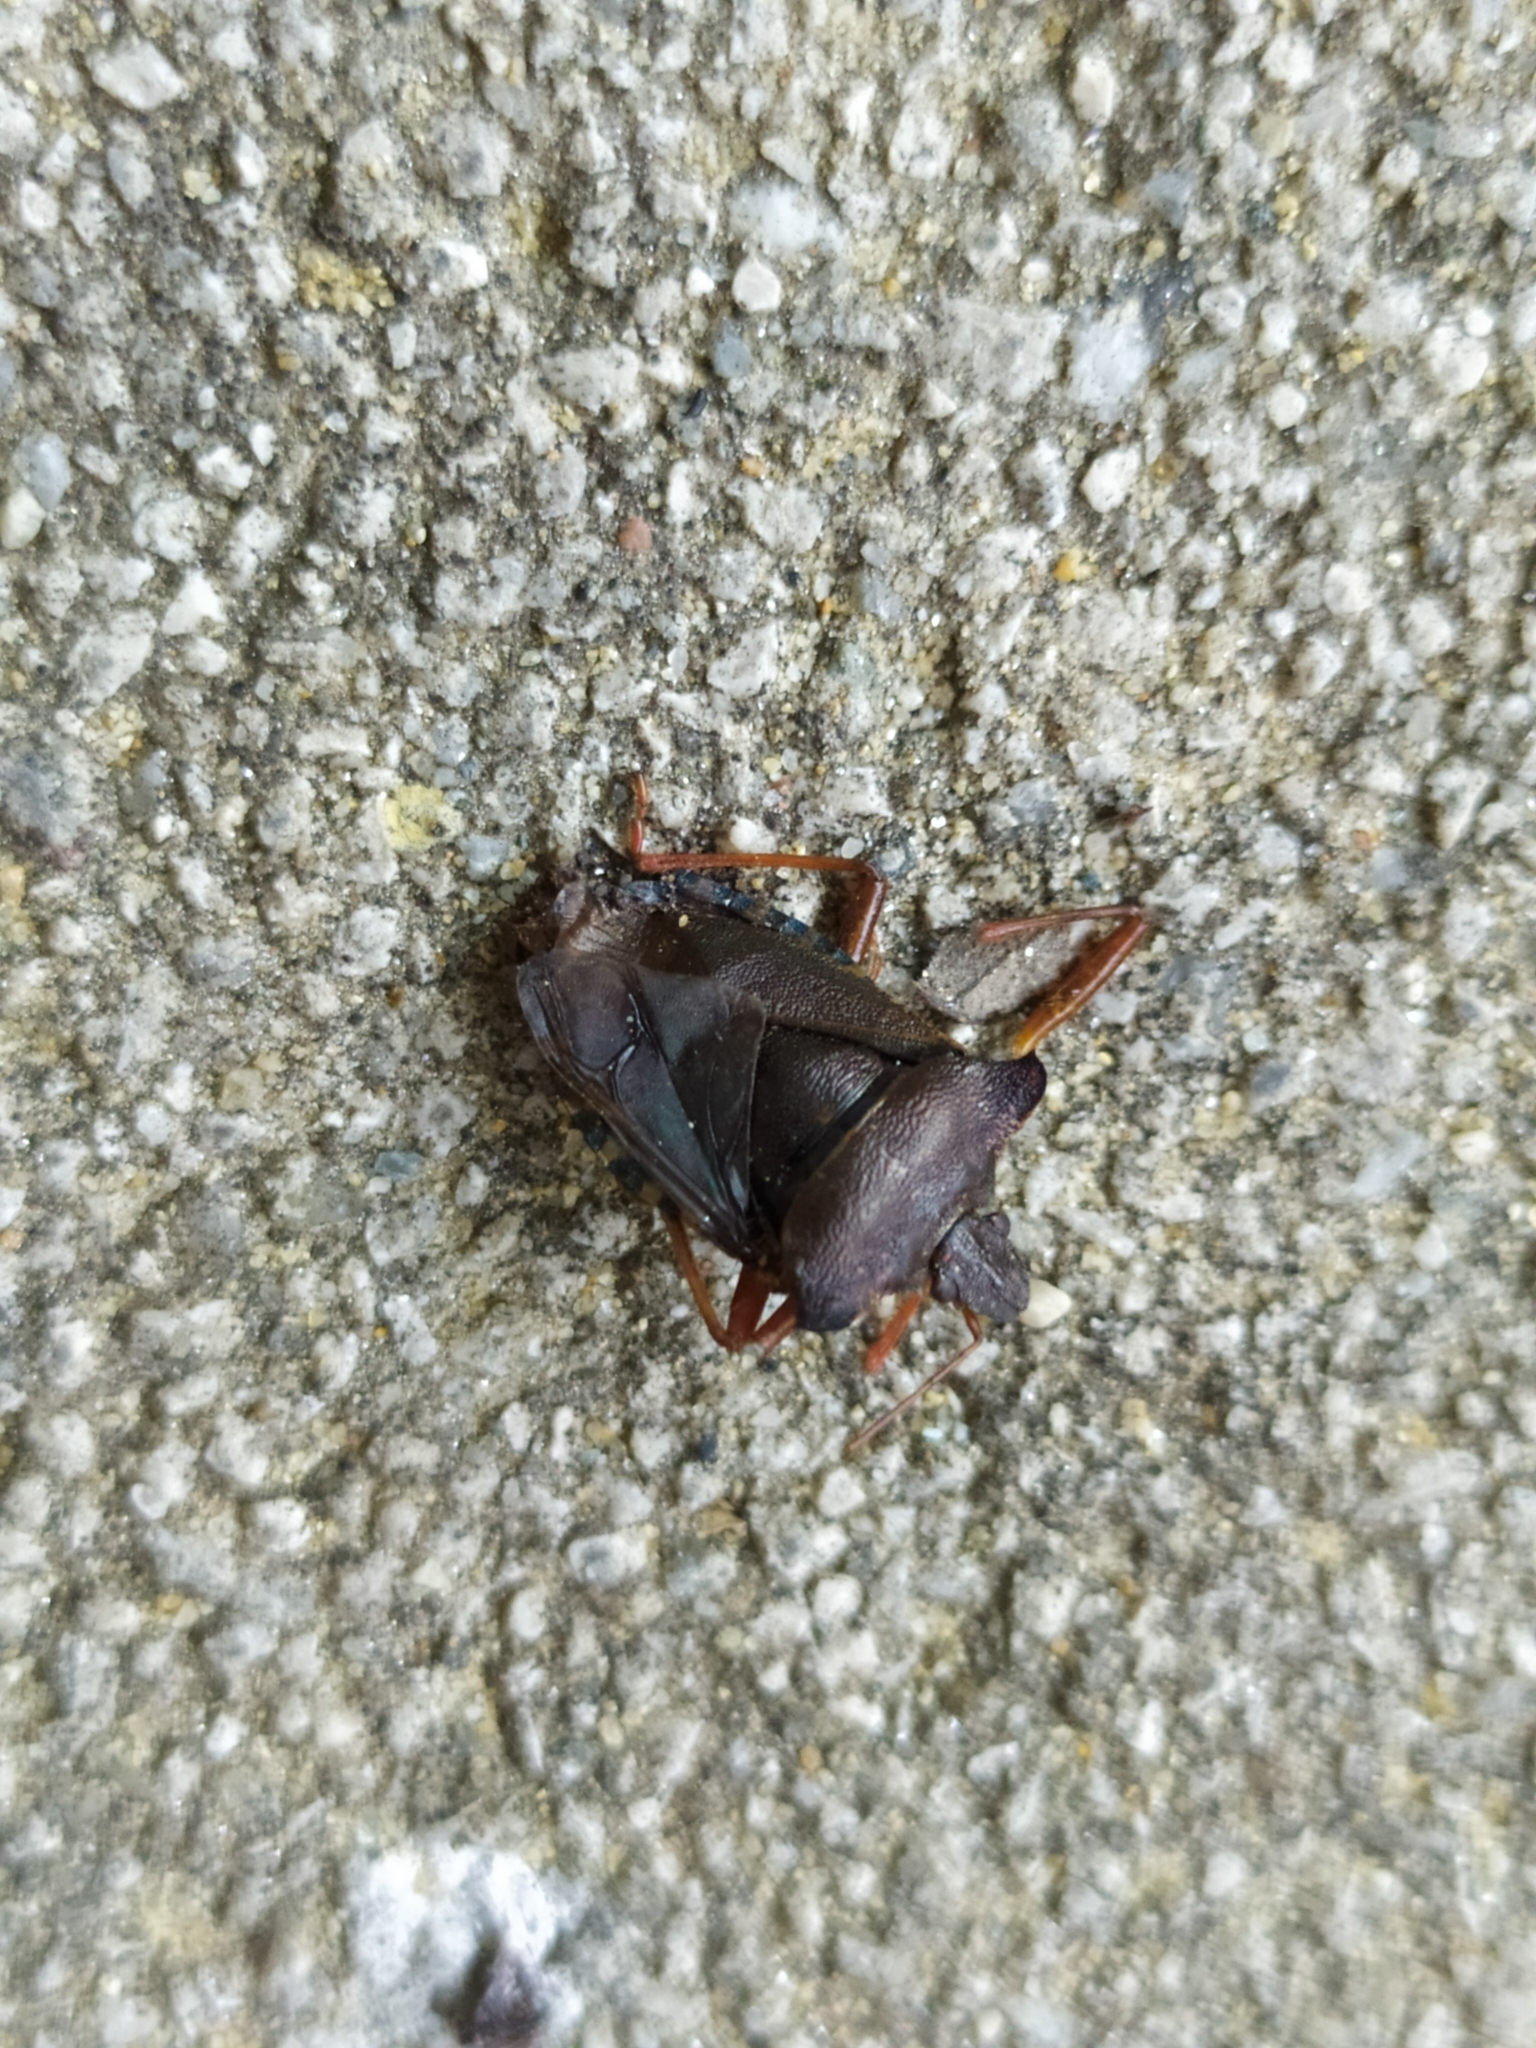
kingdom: Animalia
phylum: Arthropoda
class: Insecta
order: Hemiptera
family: Pentatomidae
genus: Pentatoma
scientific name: Pentatoma rufipes
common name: Forest bug
